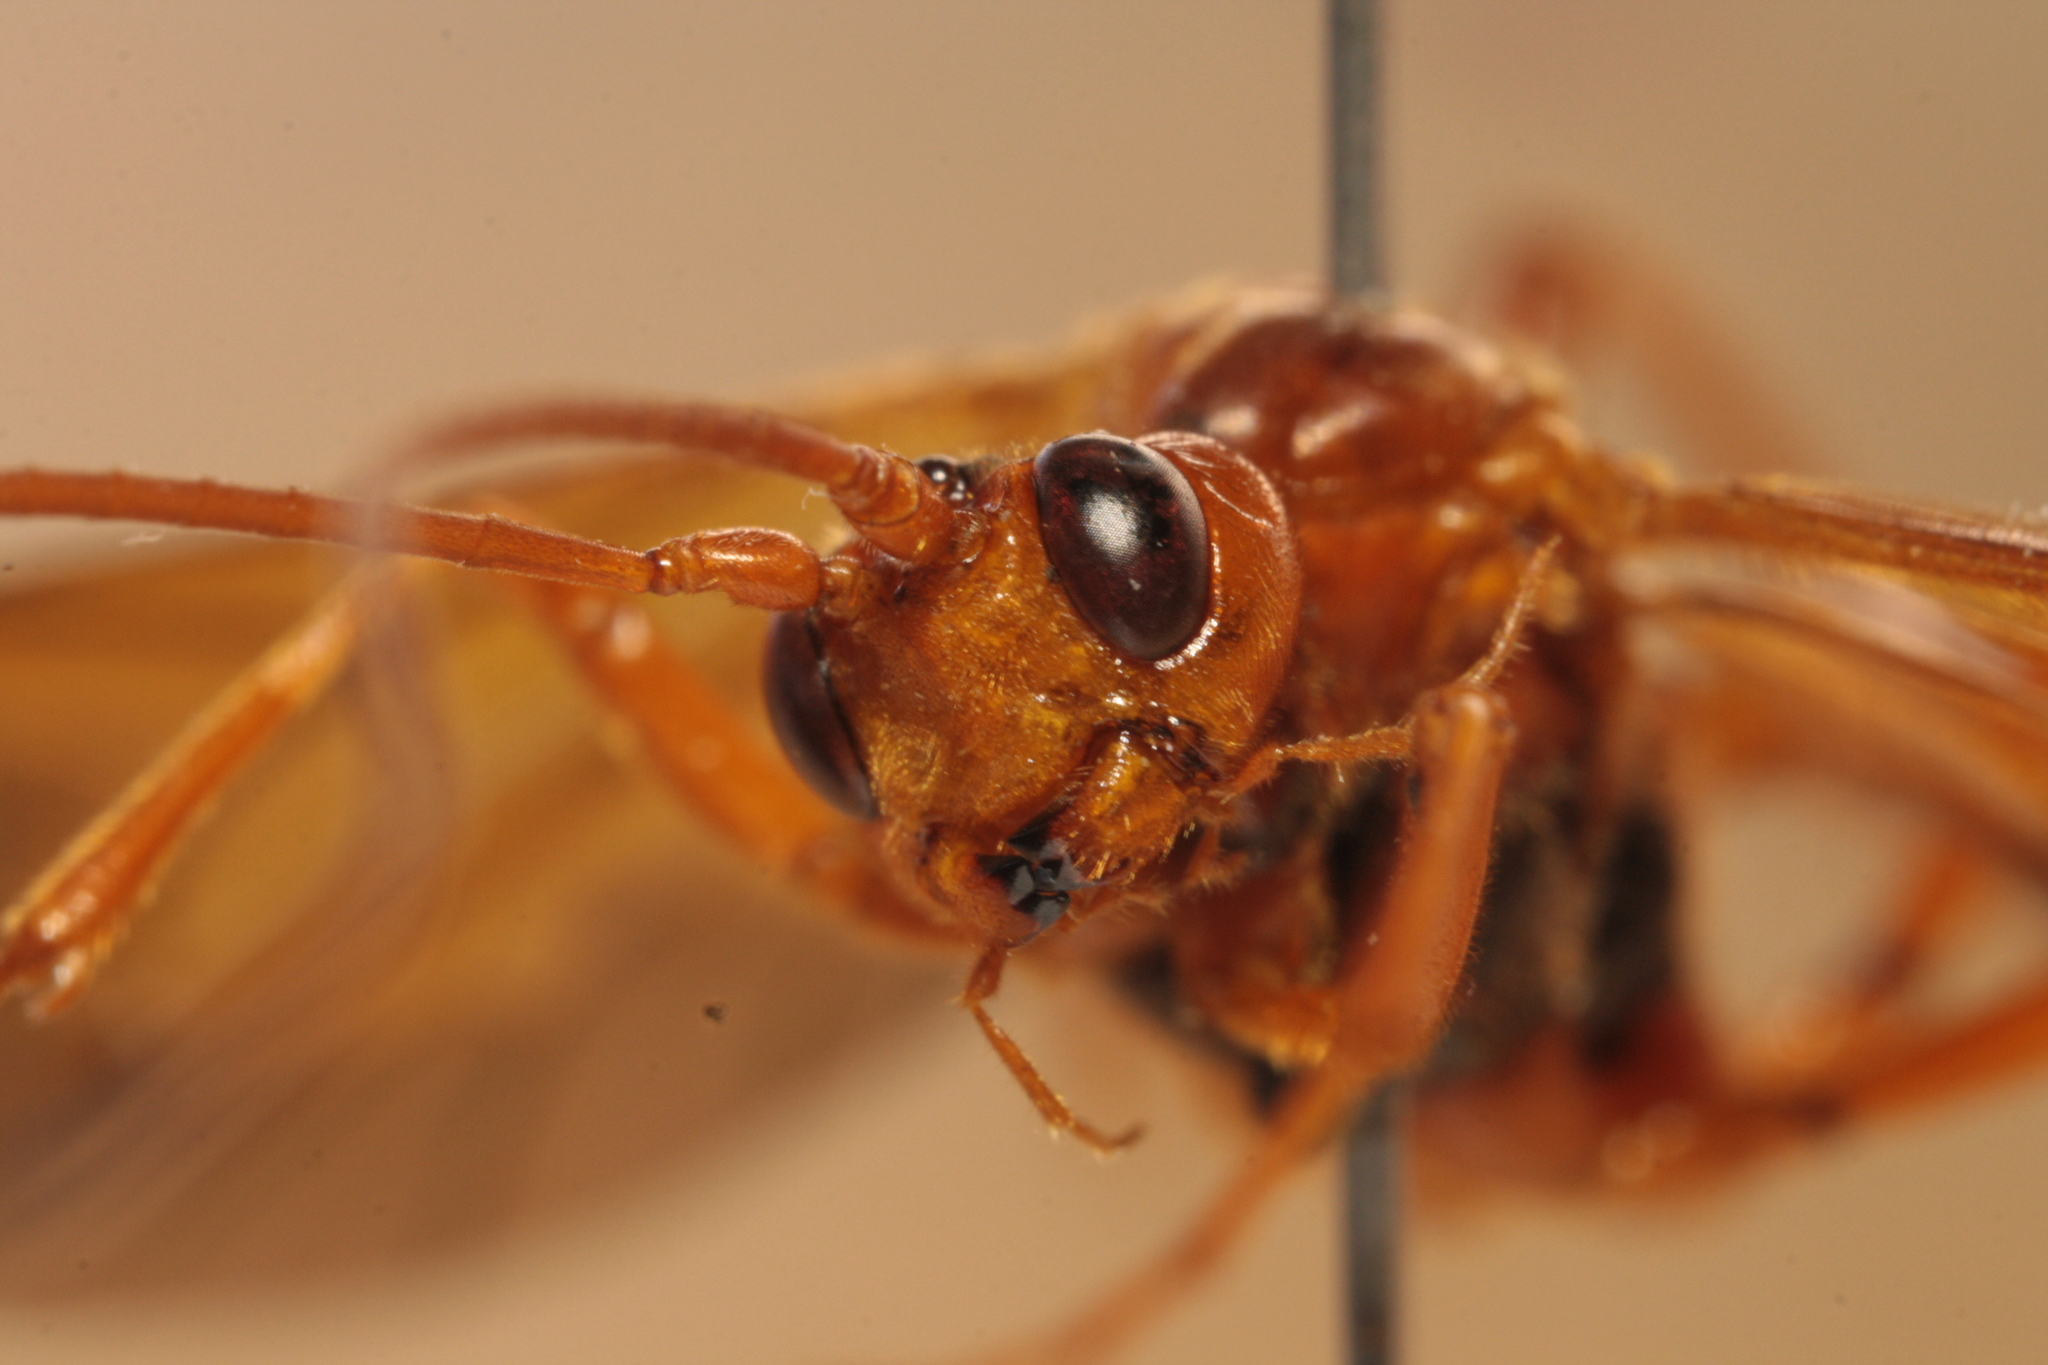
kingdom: Animalia
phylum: Arthropoda
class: Insecta
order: Hymenoptera
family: Ichneumonidae
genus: Opheltes
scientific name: Opheltes glaucopterus
